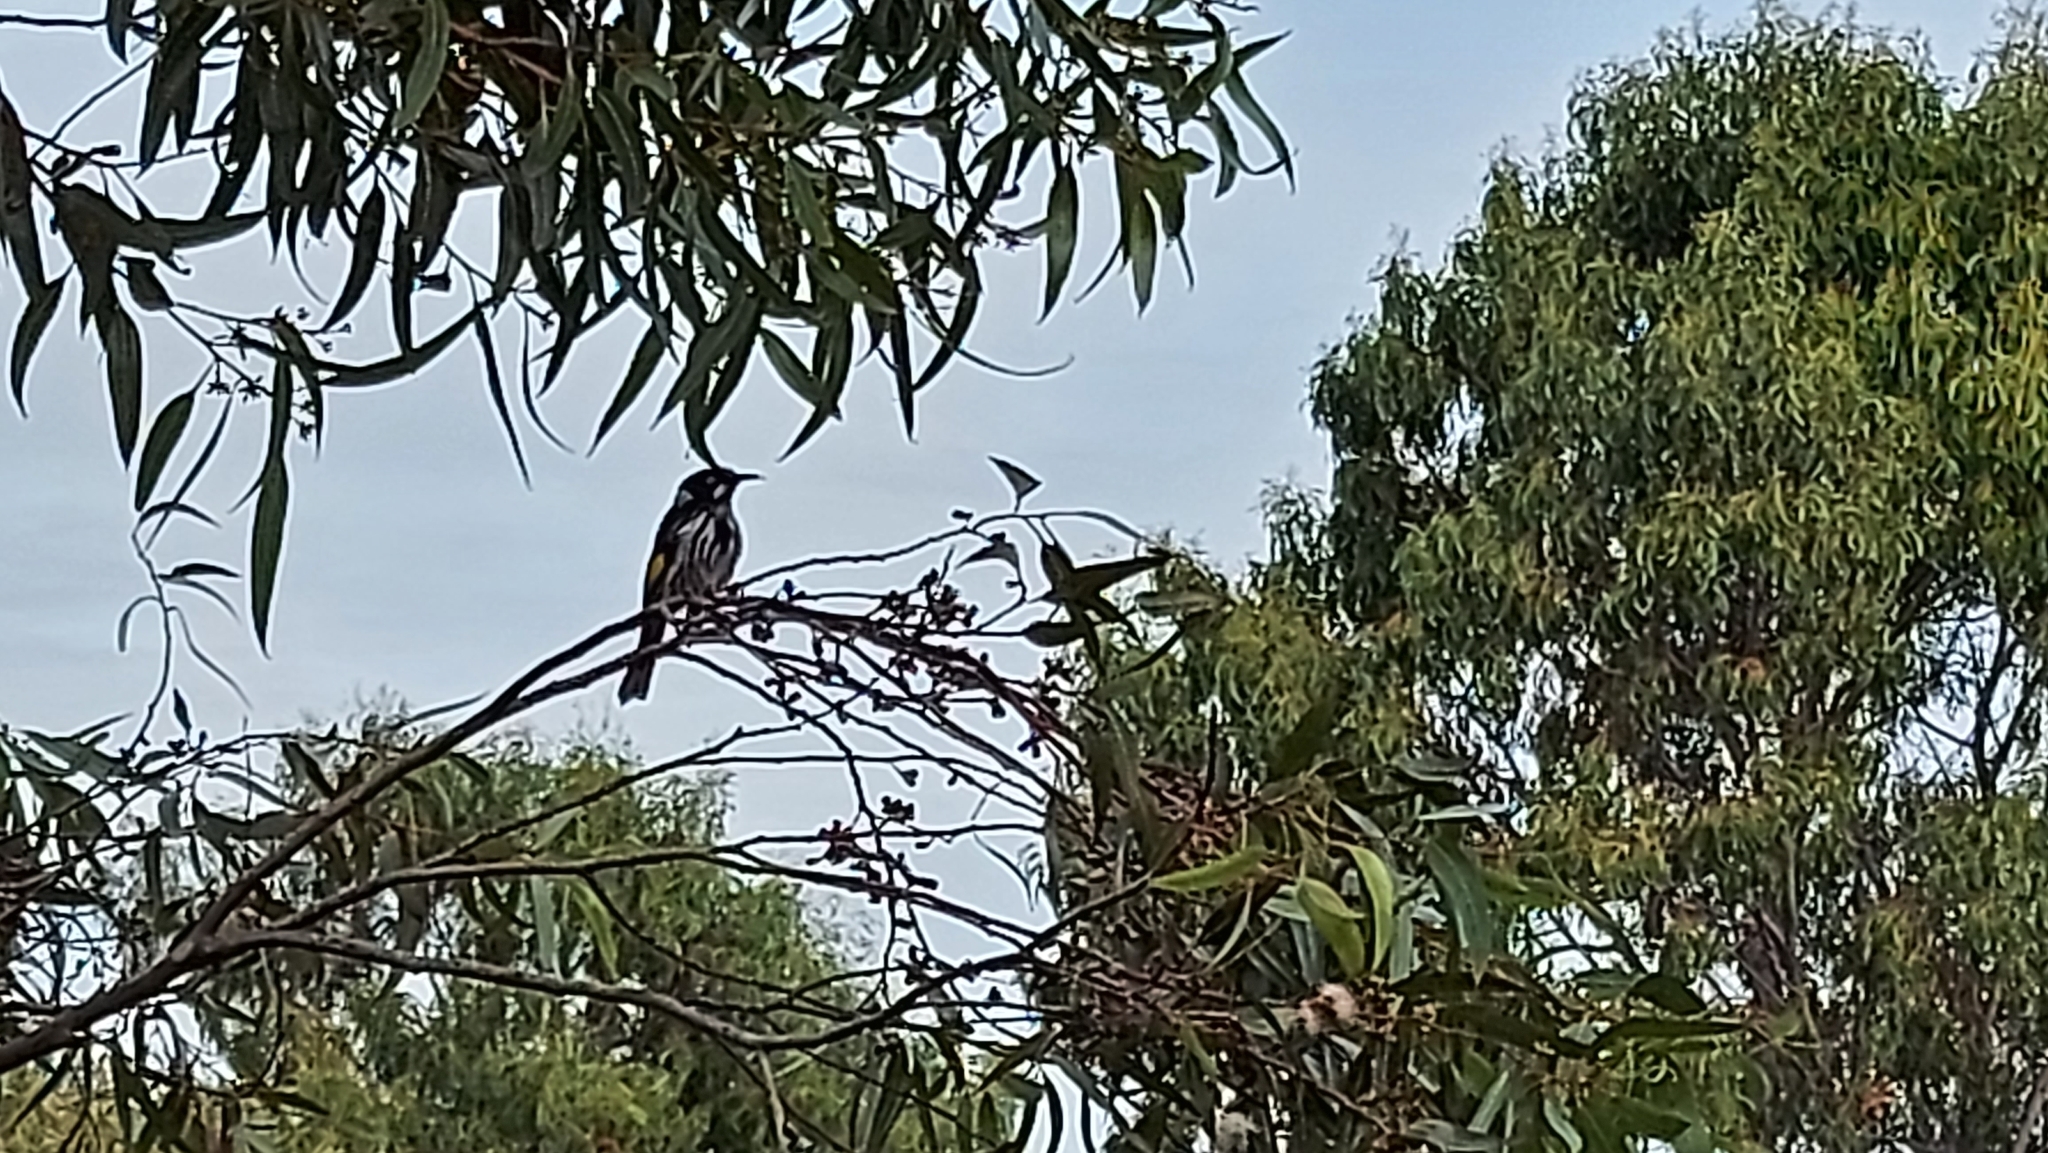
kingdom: Animalia
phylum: Chordata
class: Aves
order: Passeriformes
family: Meliphagidae
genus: Phylidonyris
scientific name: Phylidonyris novaehollandiae
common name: New holland honeyeater
